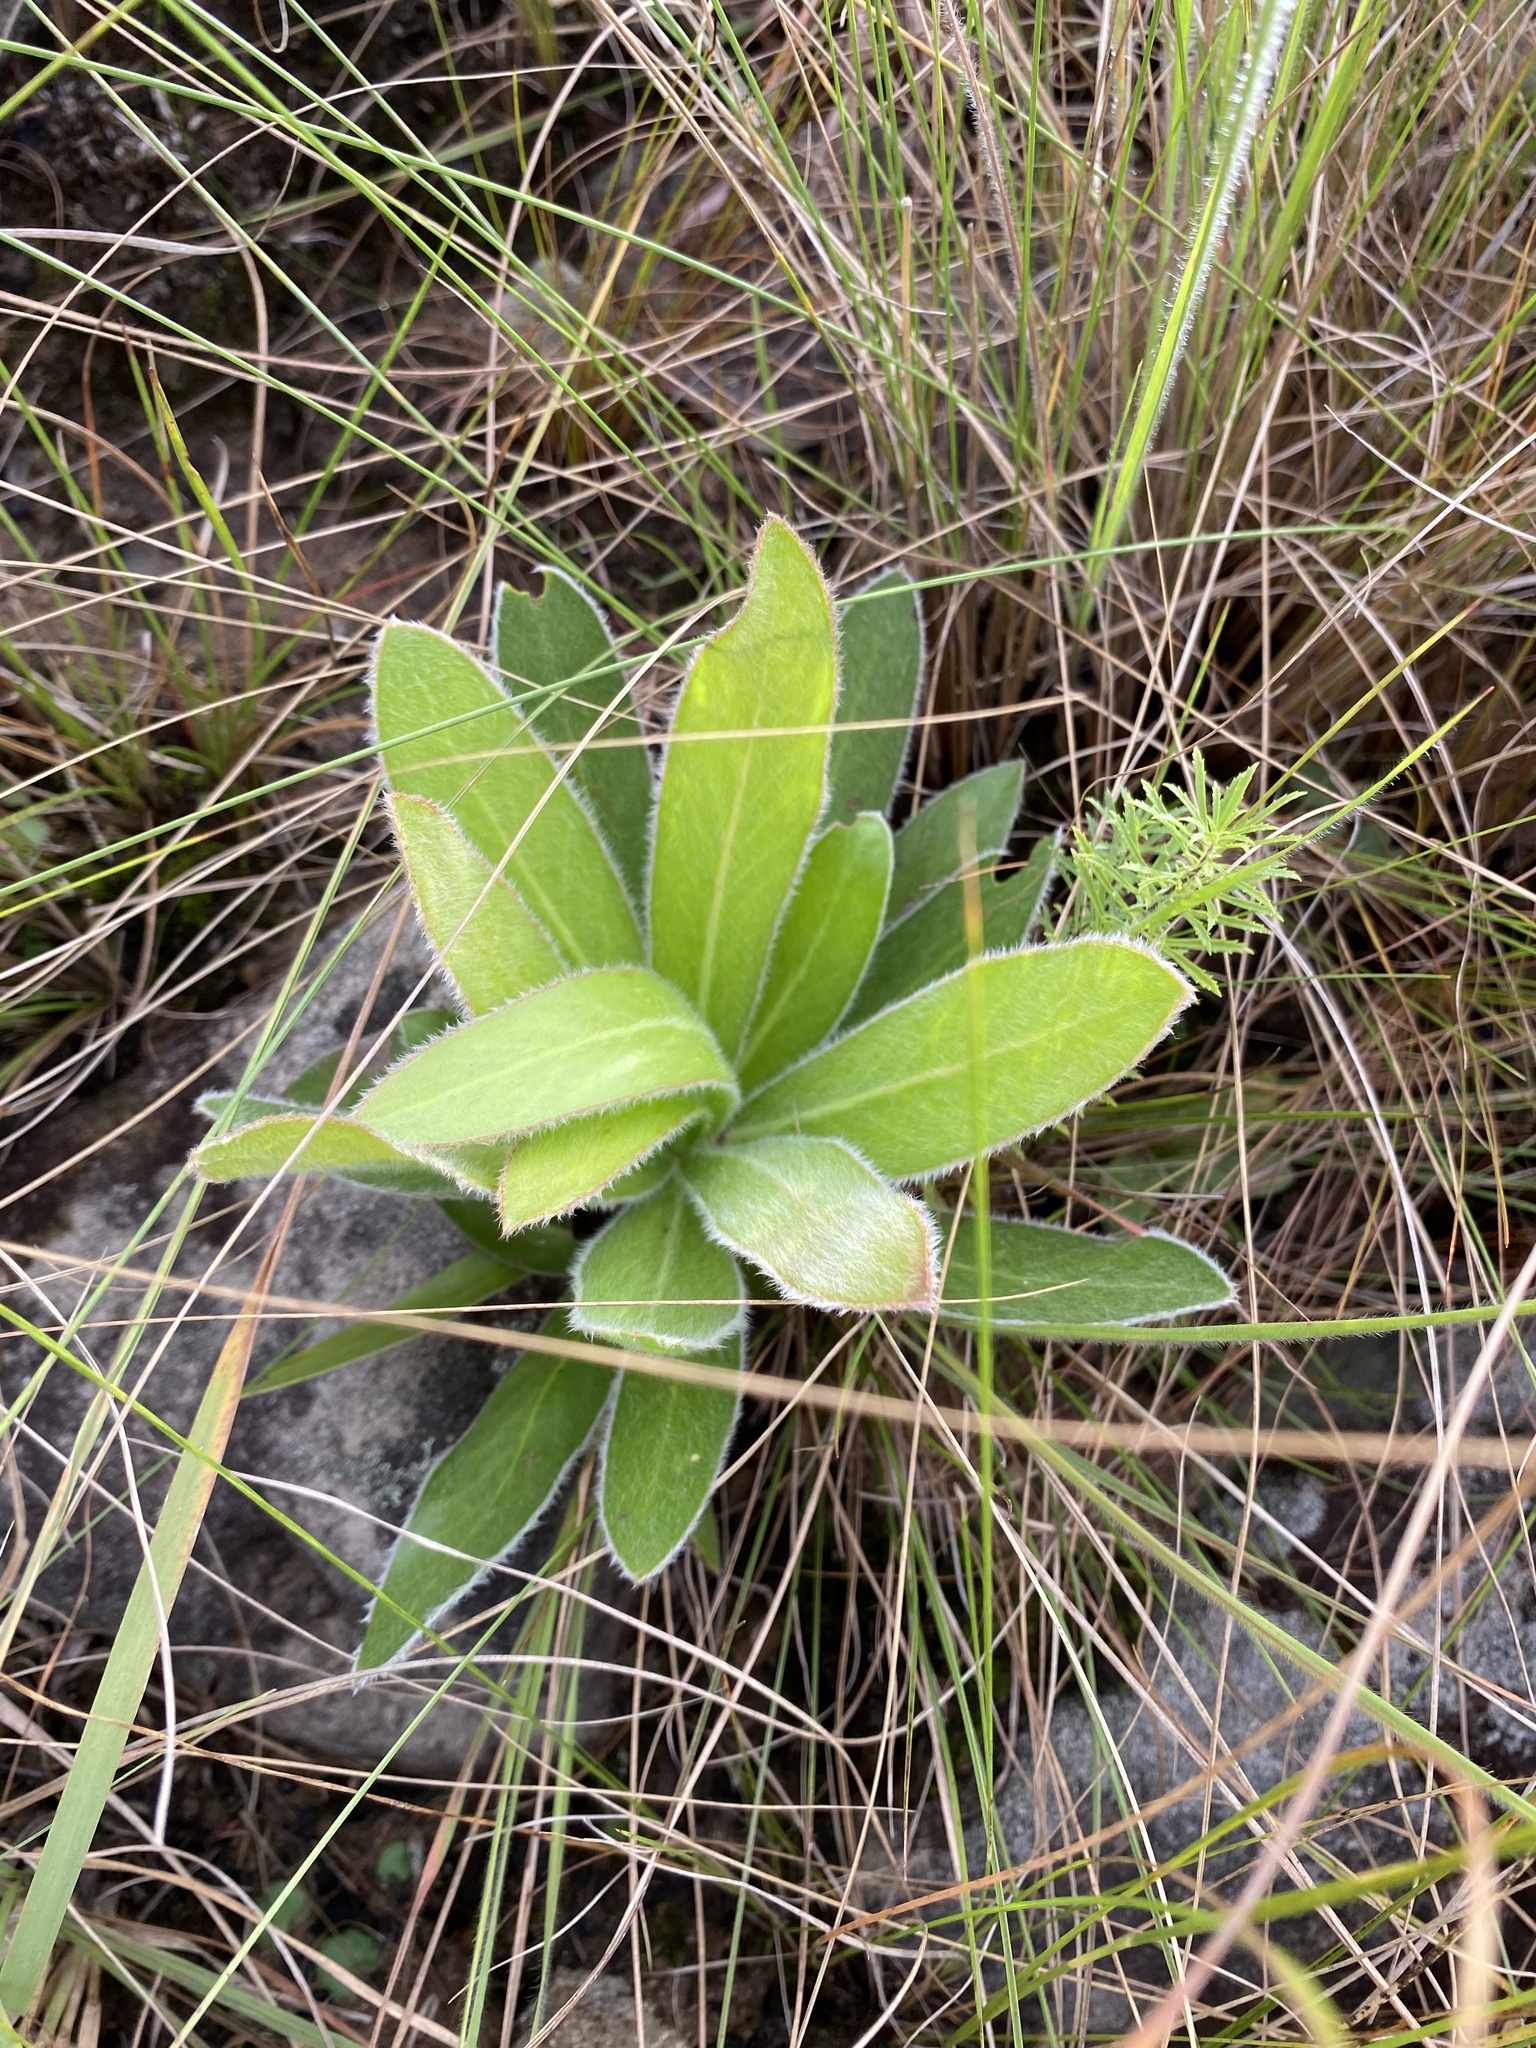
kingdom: Plantae
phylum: Tracheophyta
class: Magnoliopsida
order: Proteales
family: Proteaceae
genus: Protea
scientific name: Protea roupelliae
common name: Silver sugarbush
